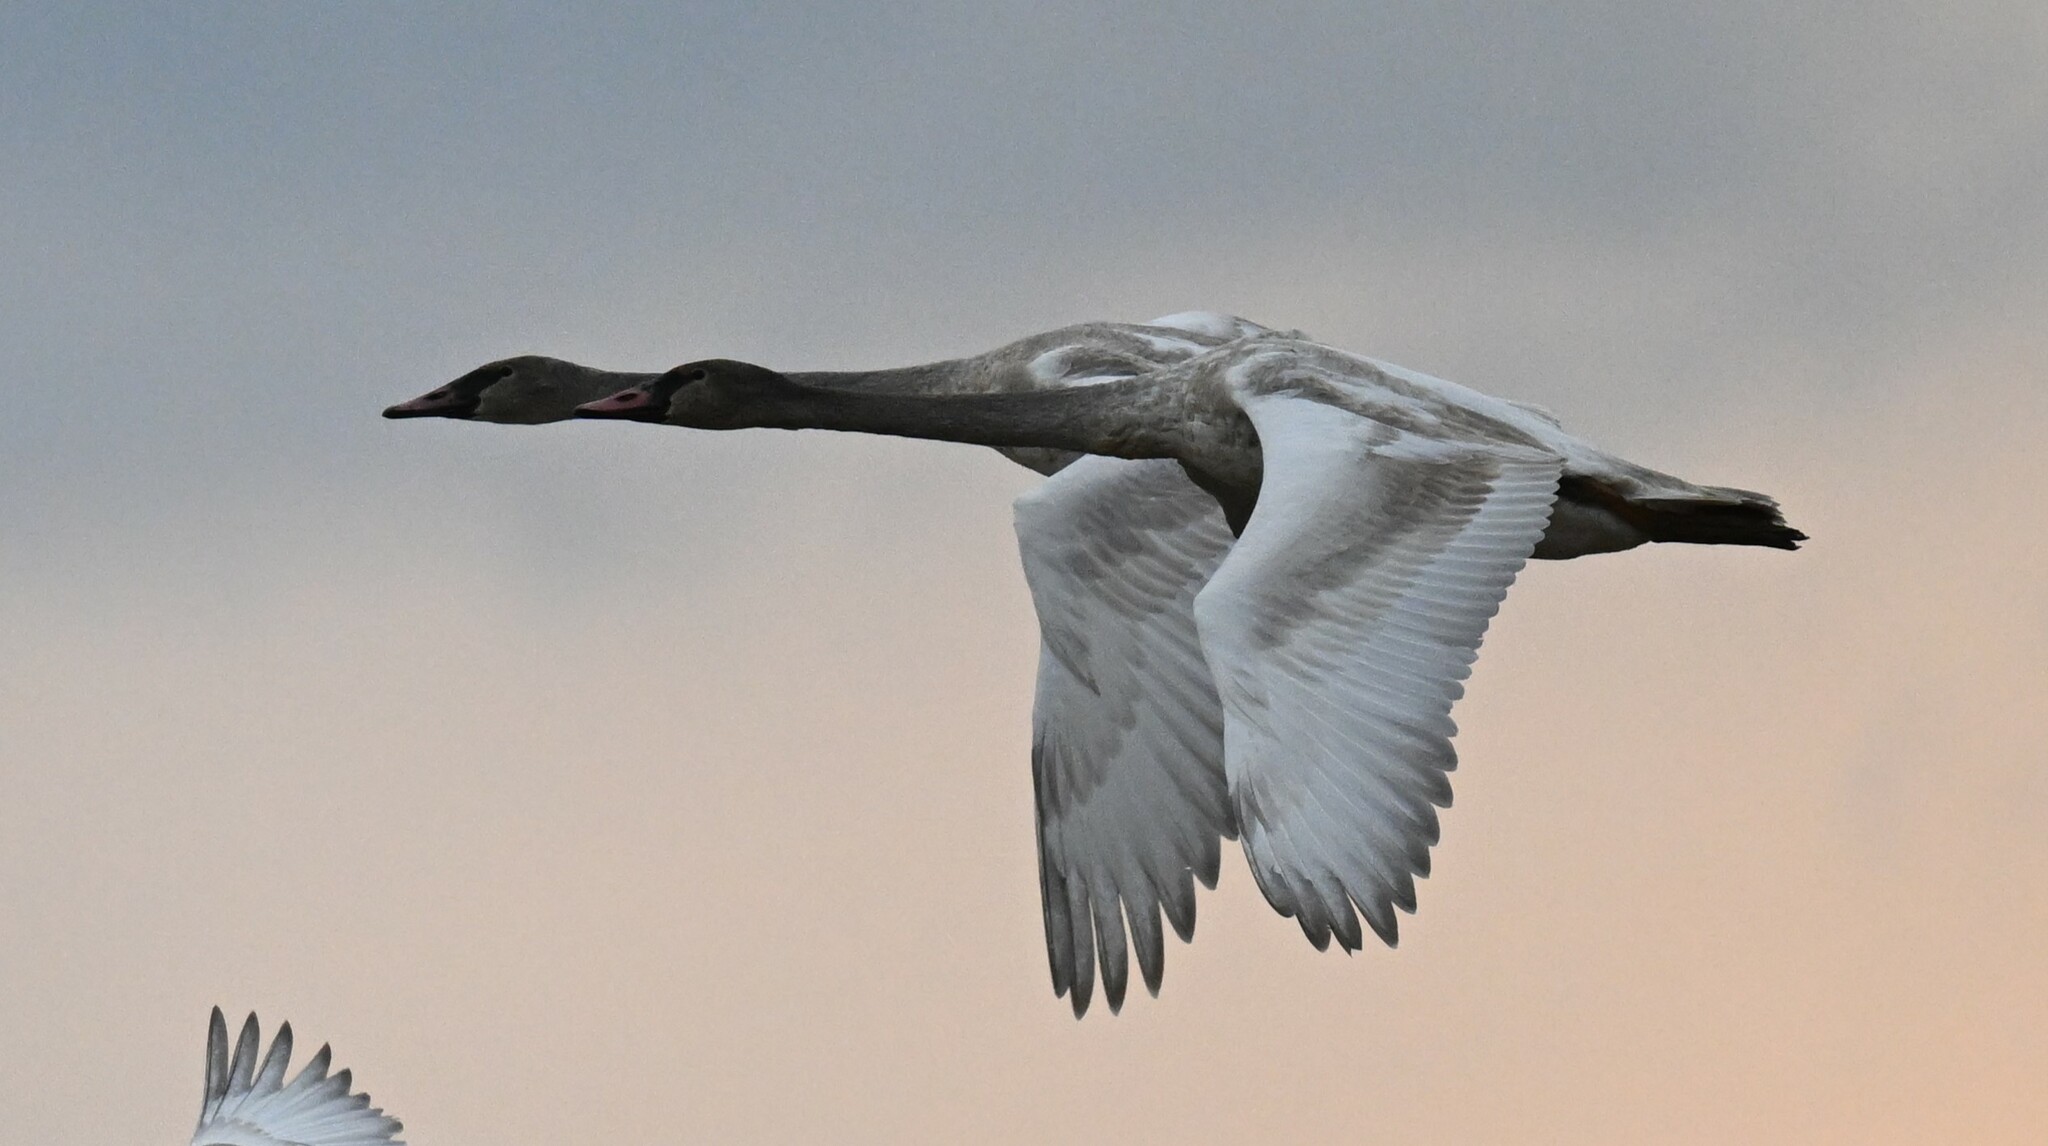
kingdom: Animalia
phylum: Chordata
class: Aves
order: Anseriformes
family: Anatidae
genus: Cygnus
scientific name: Cygnus buccinator
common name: Trumpeter swan
